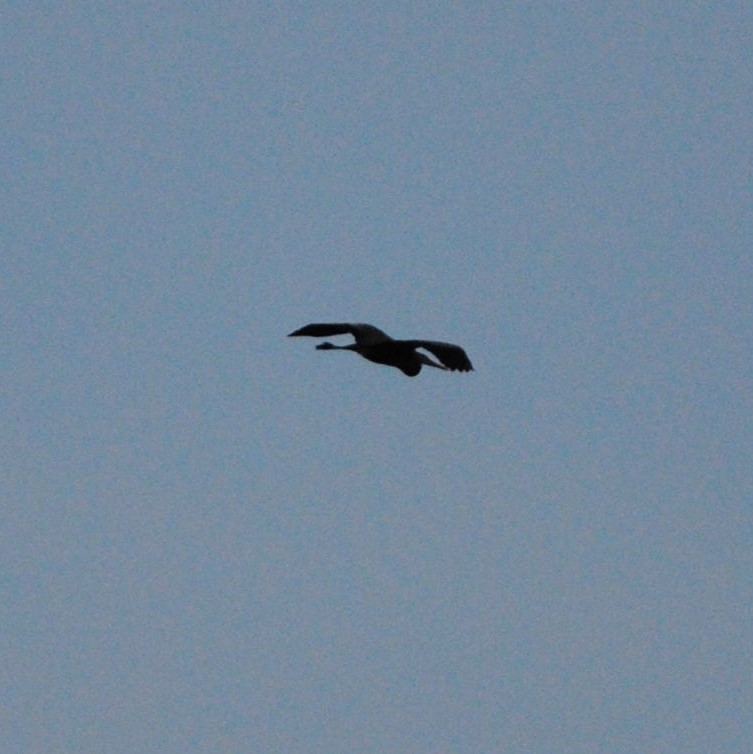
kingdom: Animalia
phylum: Chordata
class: Aves
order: Pelecaniformes
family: Ardeidae
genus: Ardea
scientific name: Ardea herodias
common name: Great blue heron
